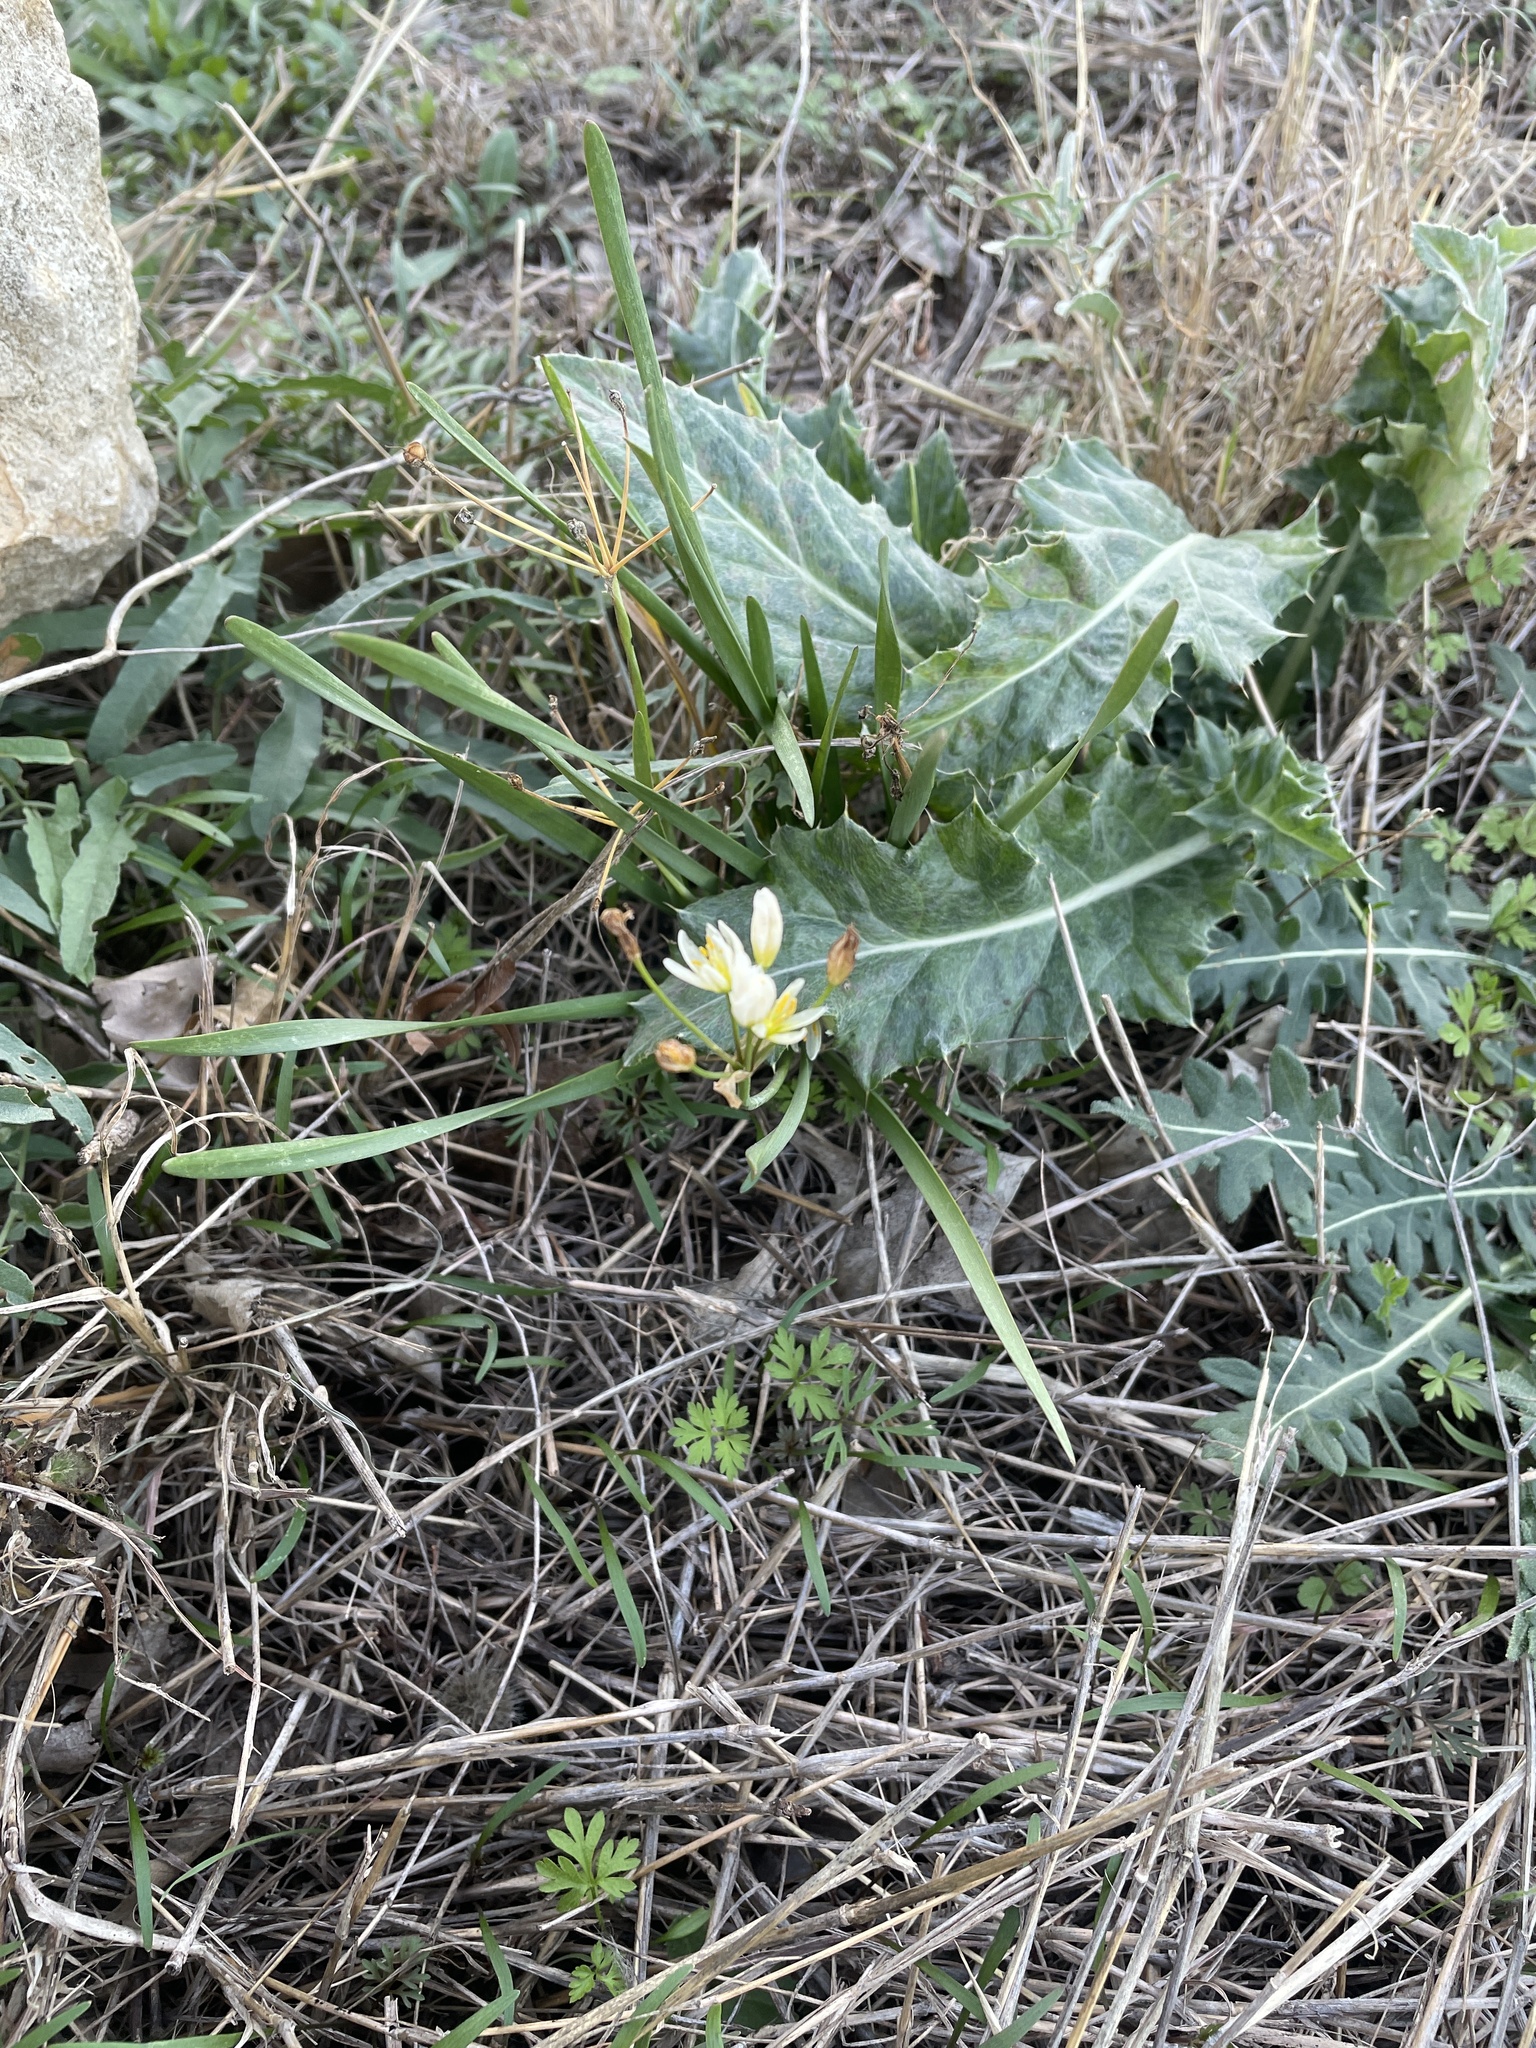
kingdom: Plantae
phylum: Tracheophyta
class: Liliopsida
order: Asparagales
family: Amaryllidaceae
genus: Nothoscordum
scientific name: Nothoscordum bivalve
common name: Crow-poison
